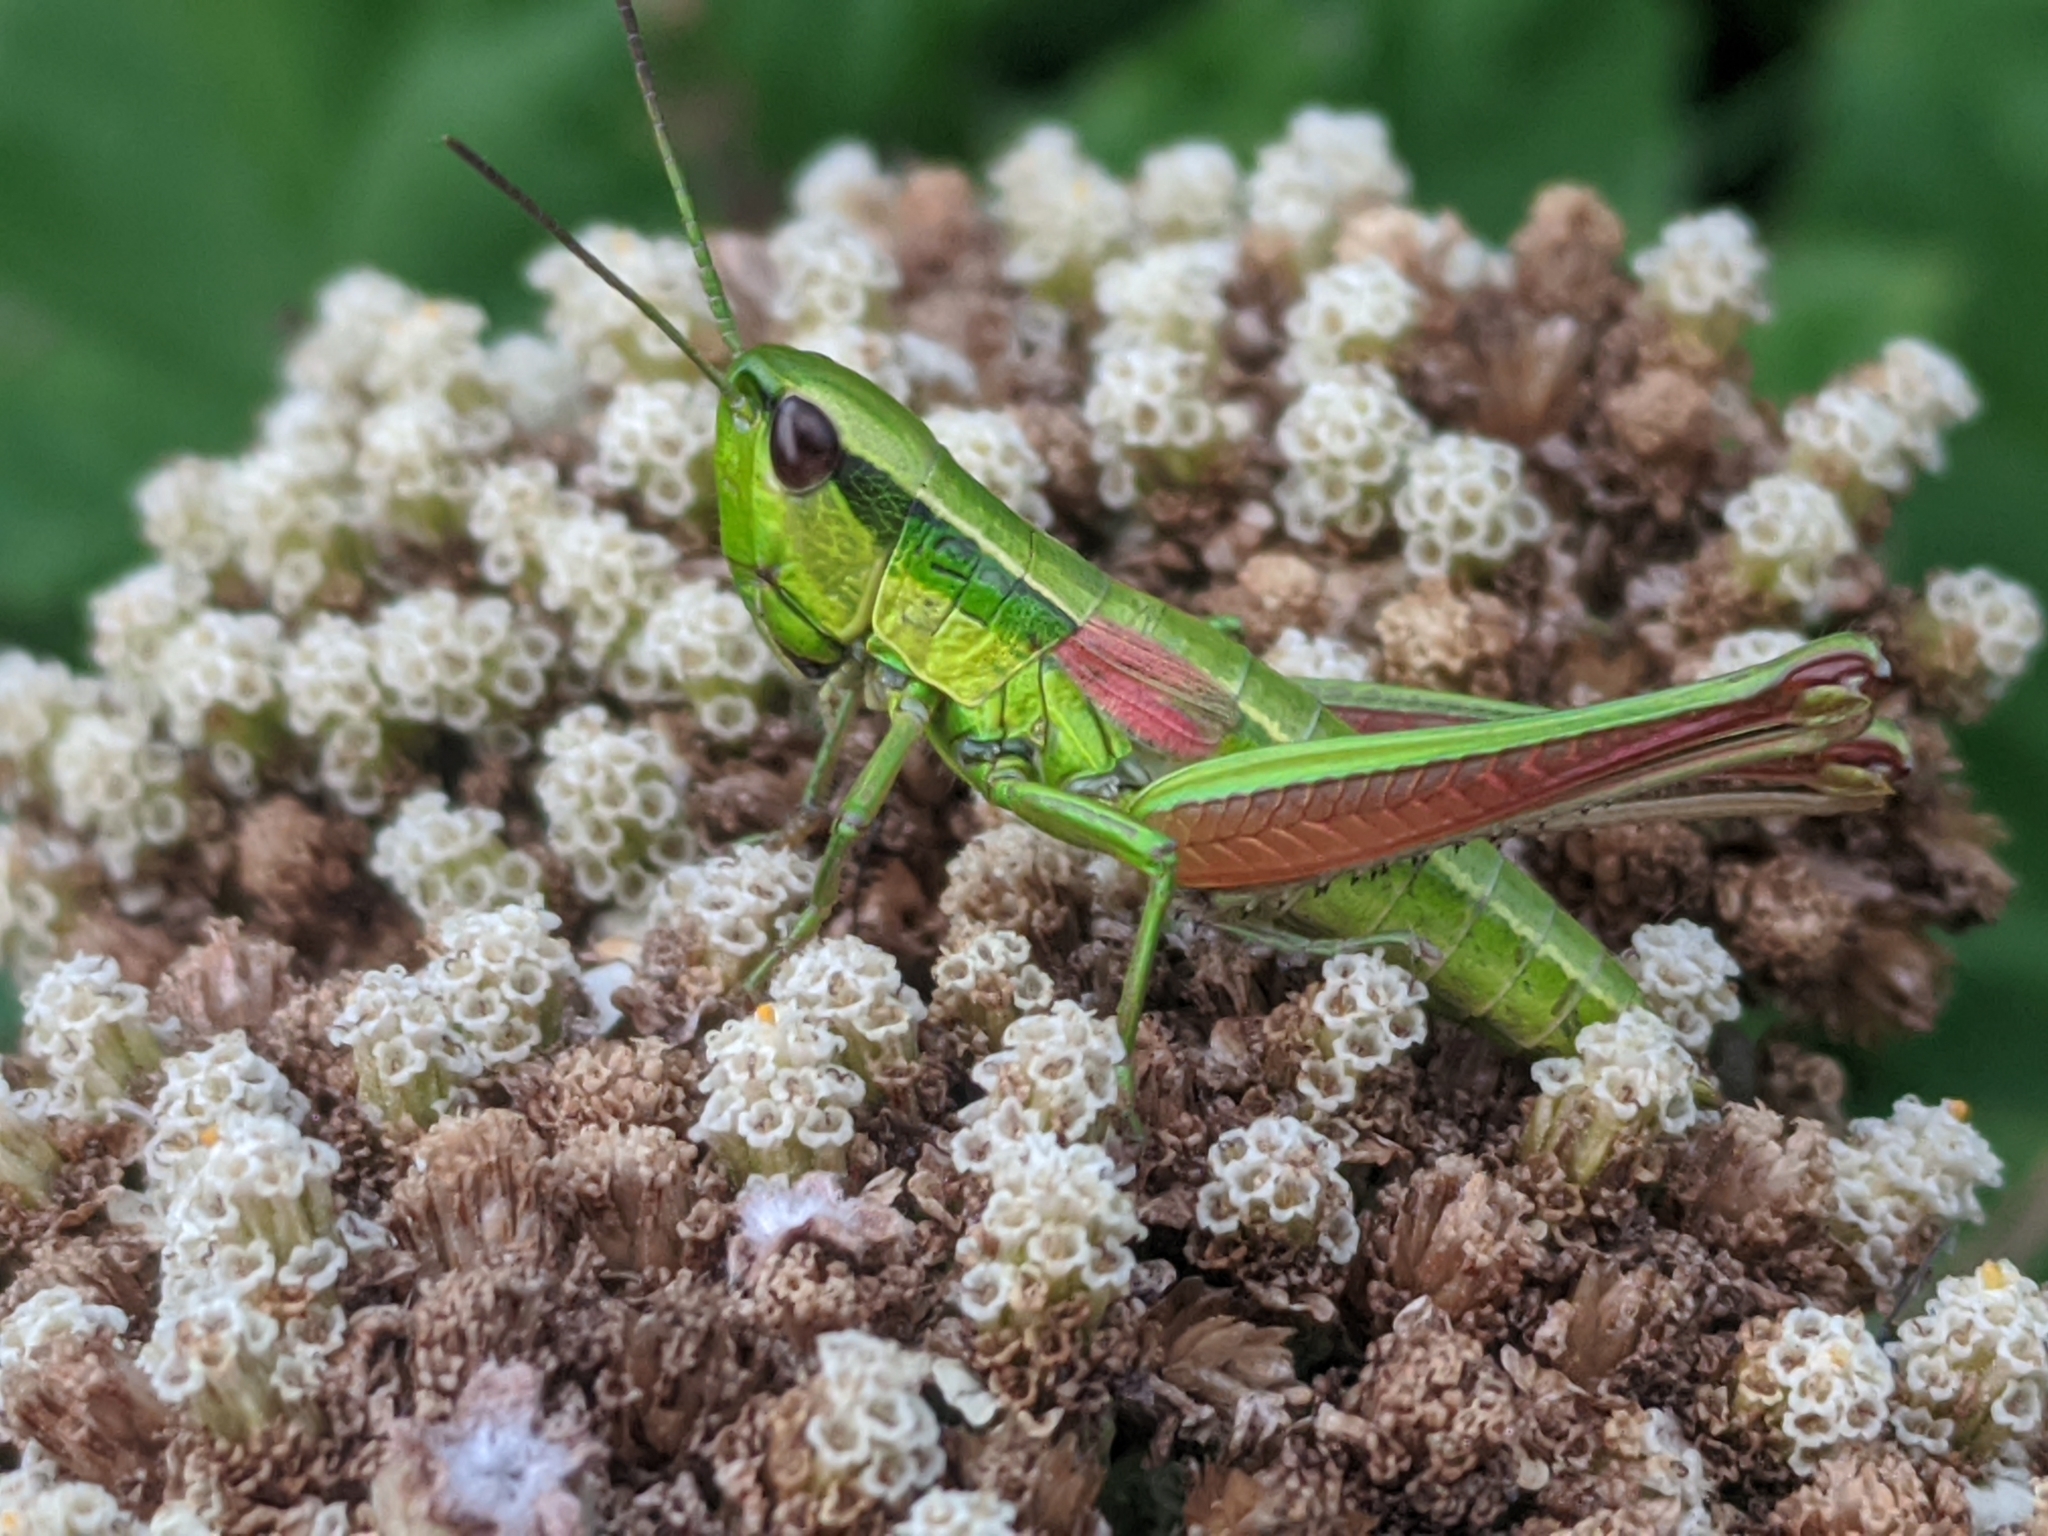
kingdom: Animalia
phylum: Arthropoda
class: Insecta
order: Orthoptera
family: Acrididae
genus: Euthystira
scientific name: Euthystira brachyptera
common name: Small gold grasshopper
